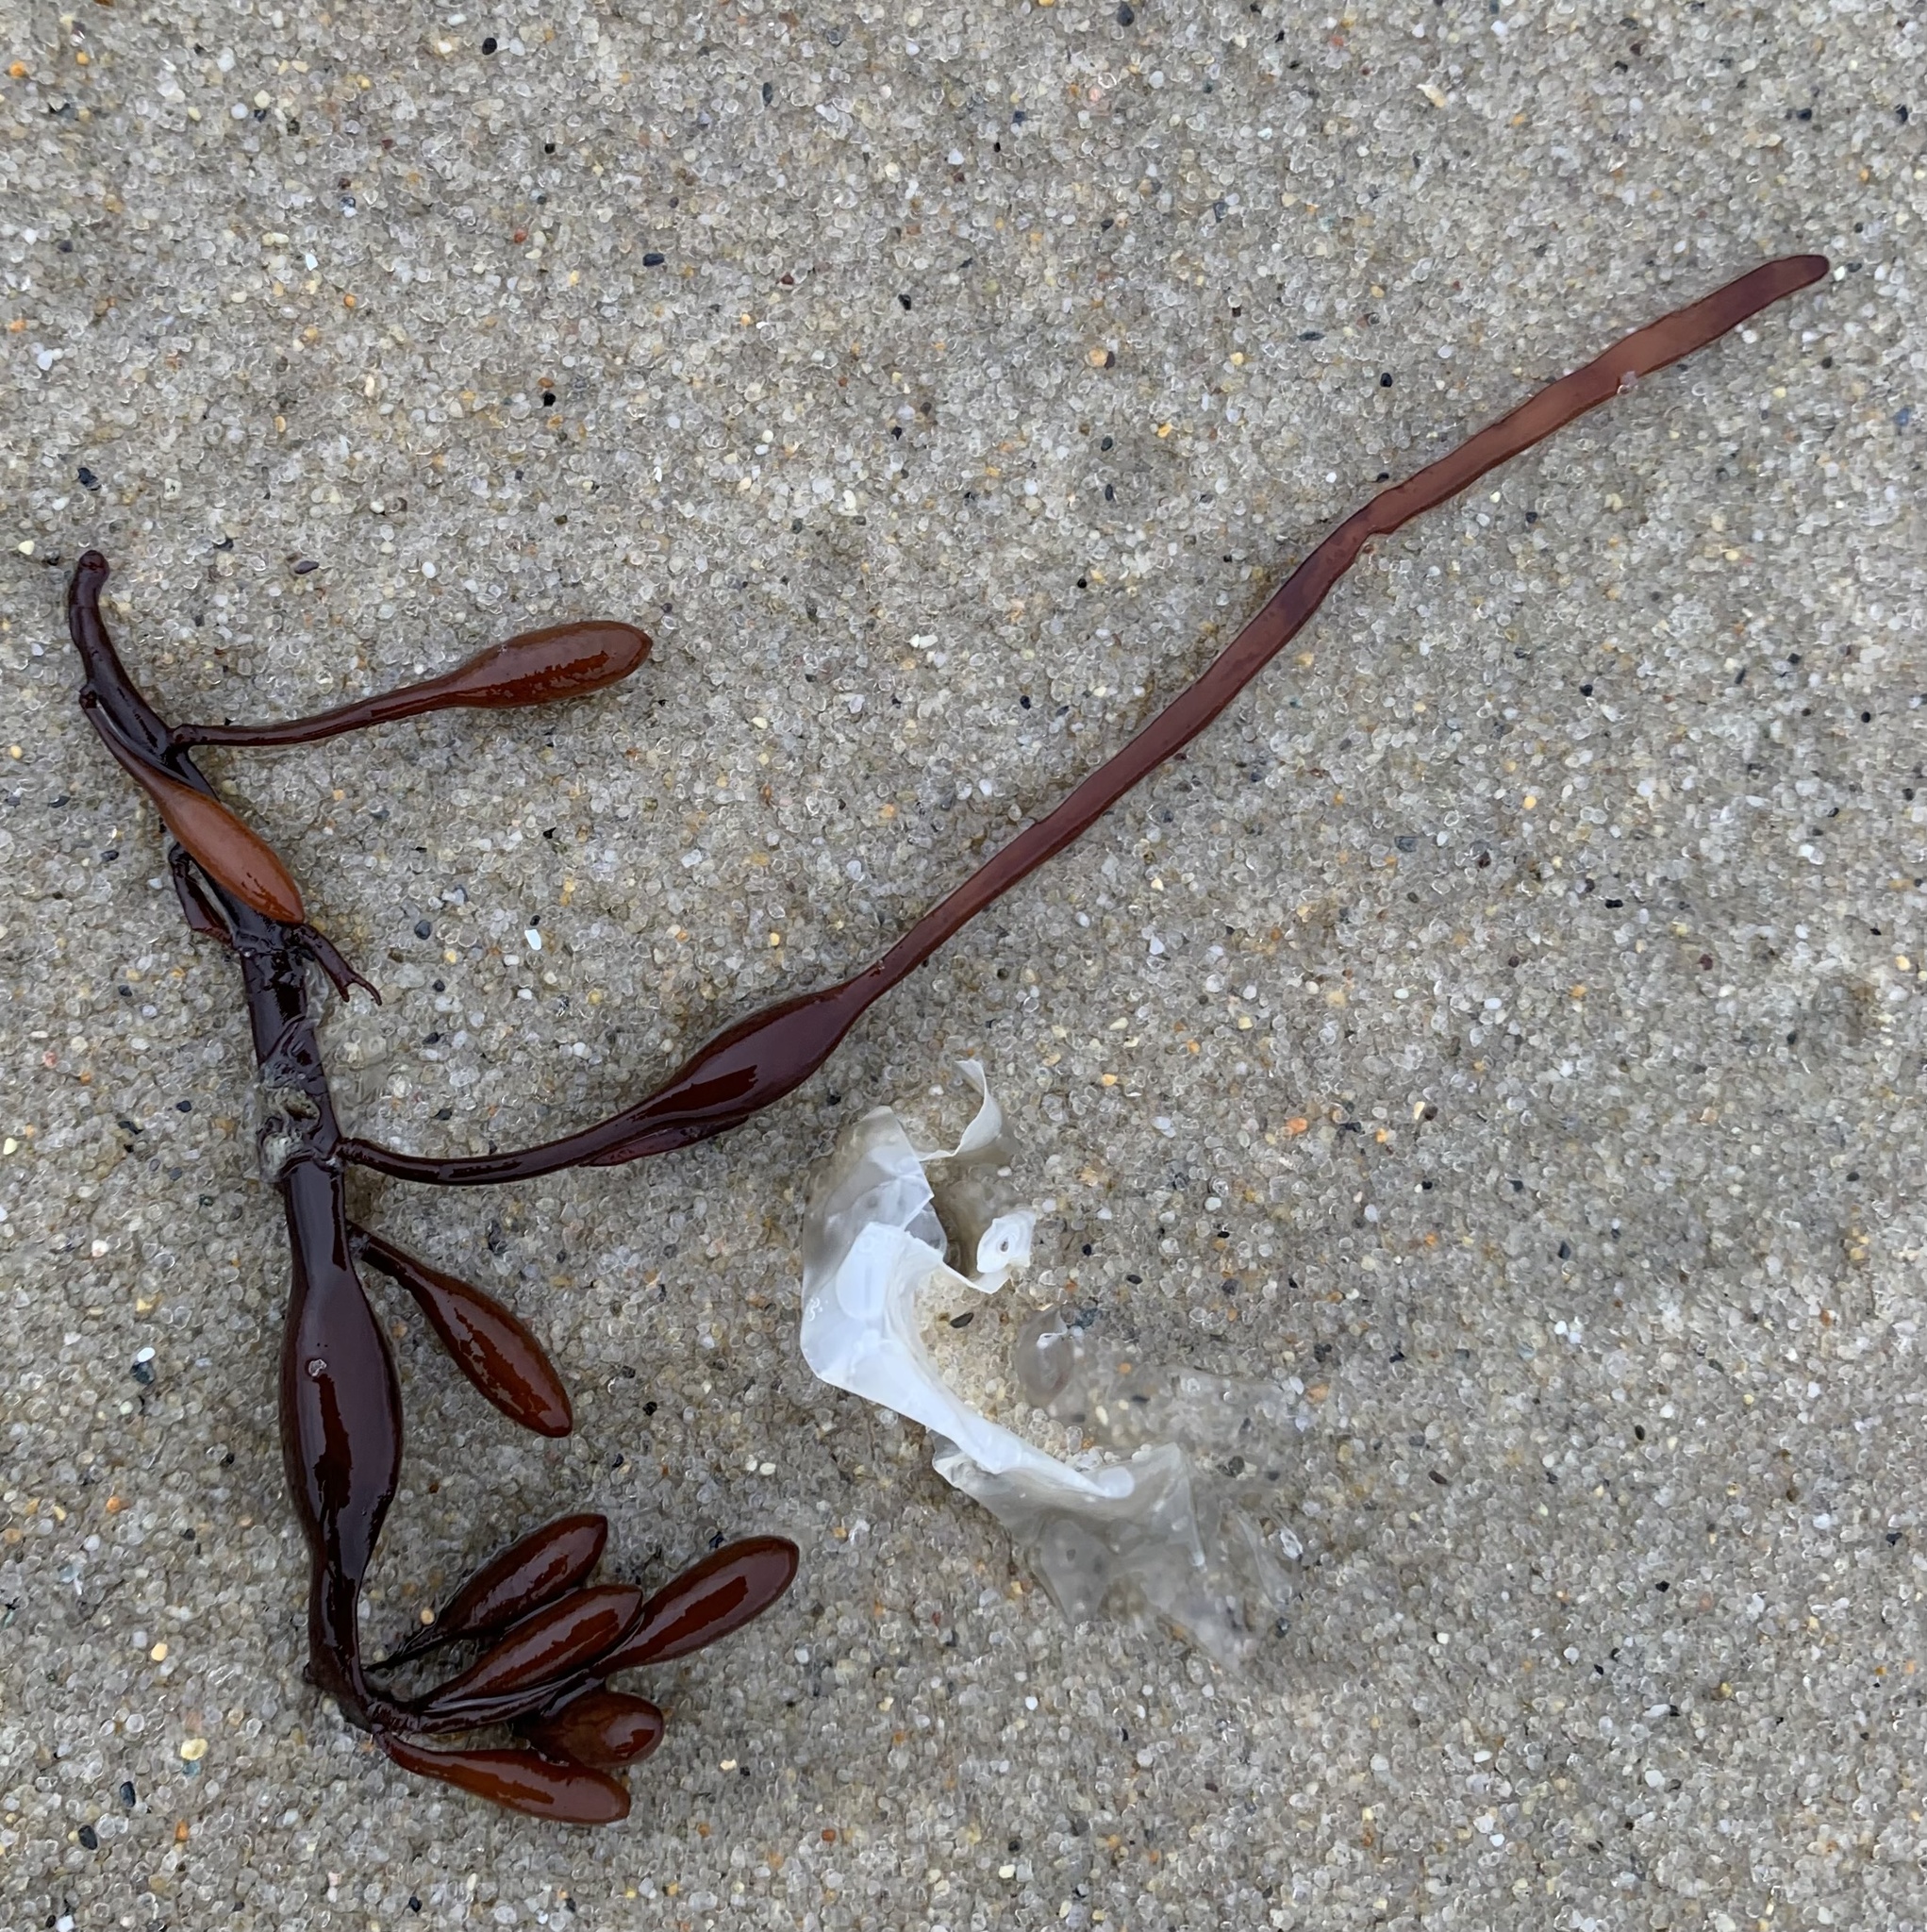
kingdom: Chromista
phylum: Ochrophyta
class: Phaeophyceae
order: Fucales
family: Fucaceae
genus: Ascophyllum
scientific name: Ascophyllum nodosum
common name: Knotted wrack
